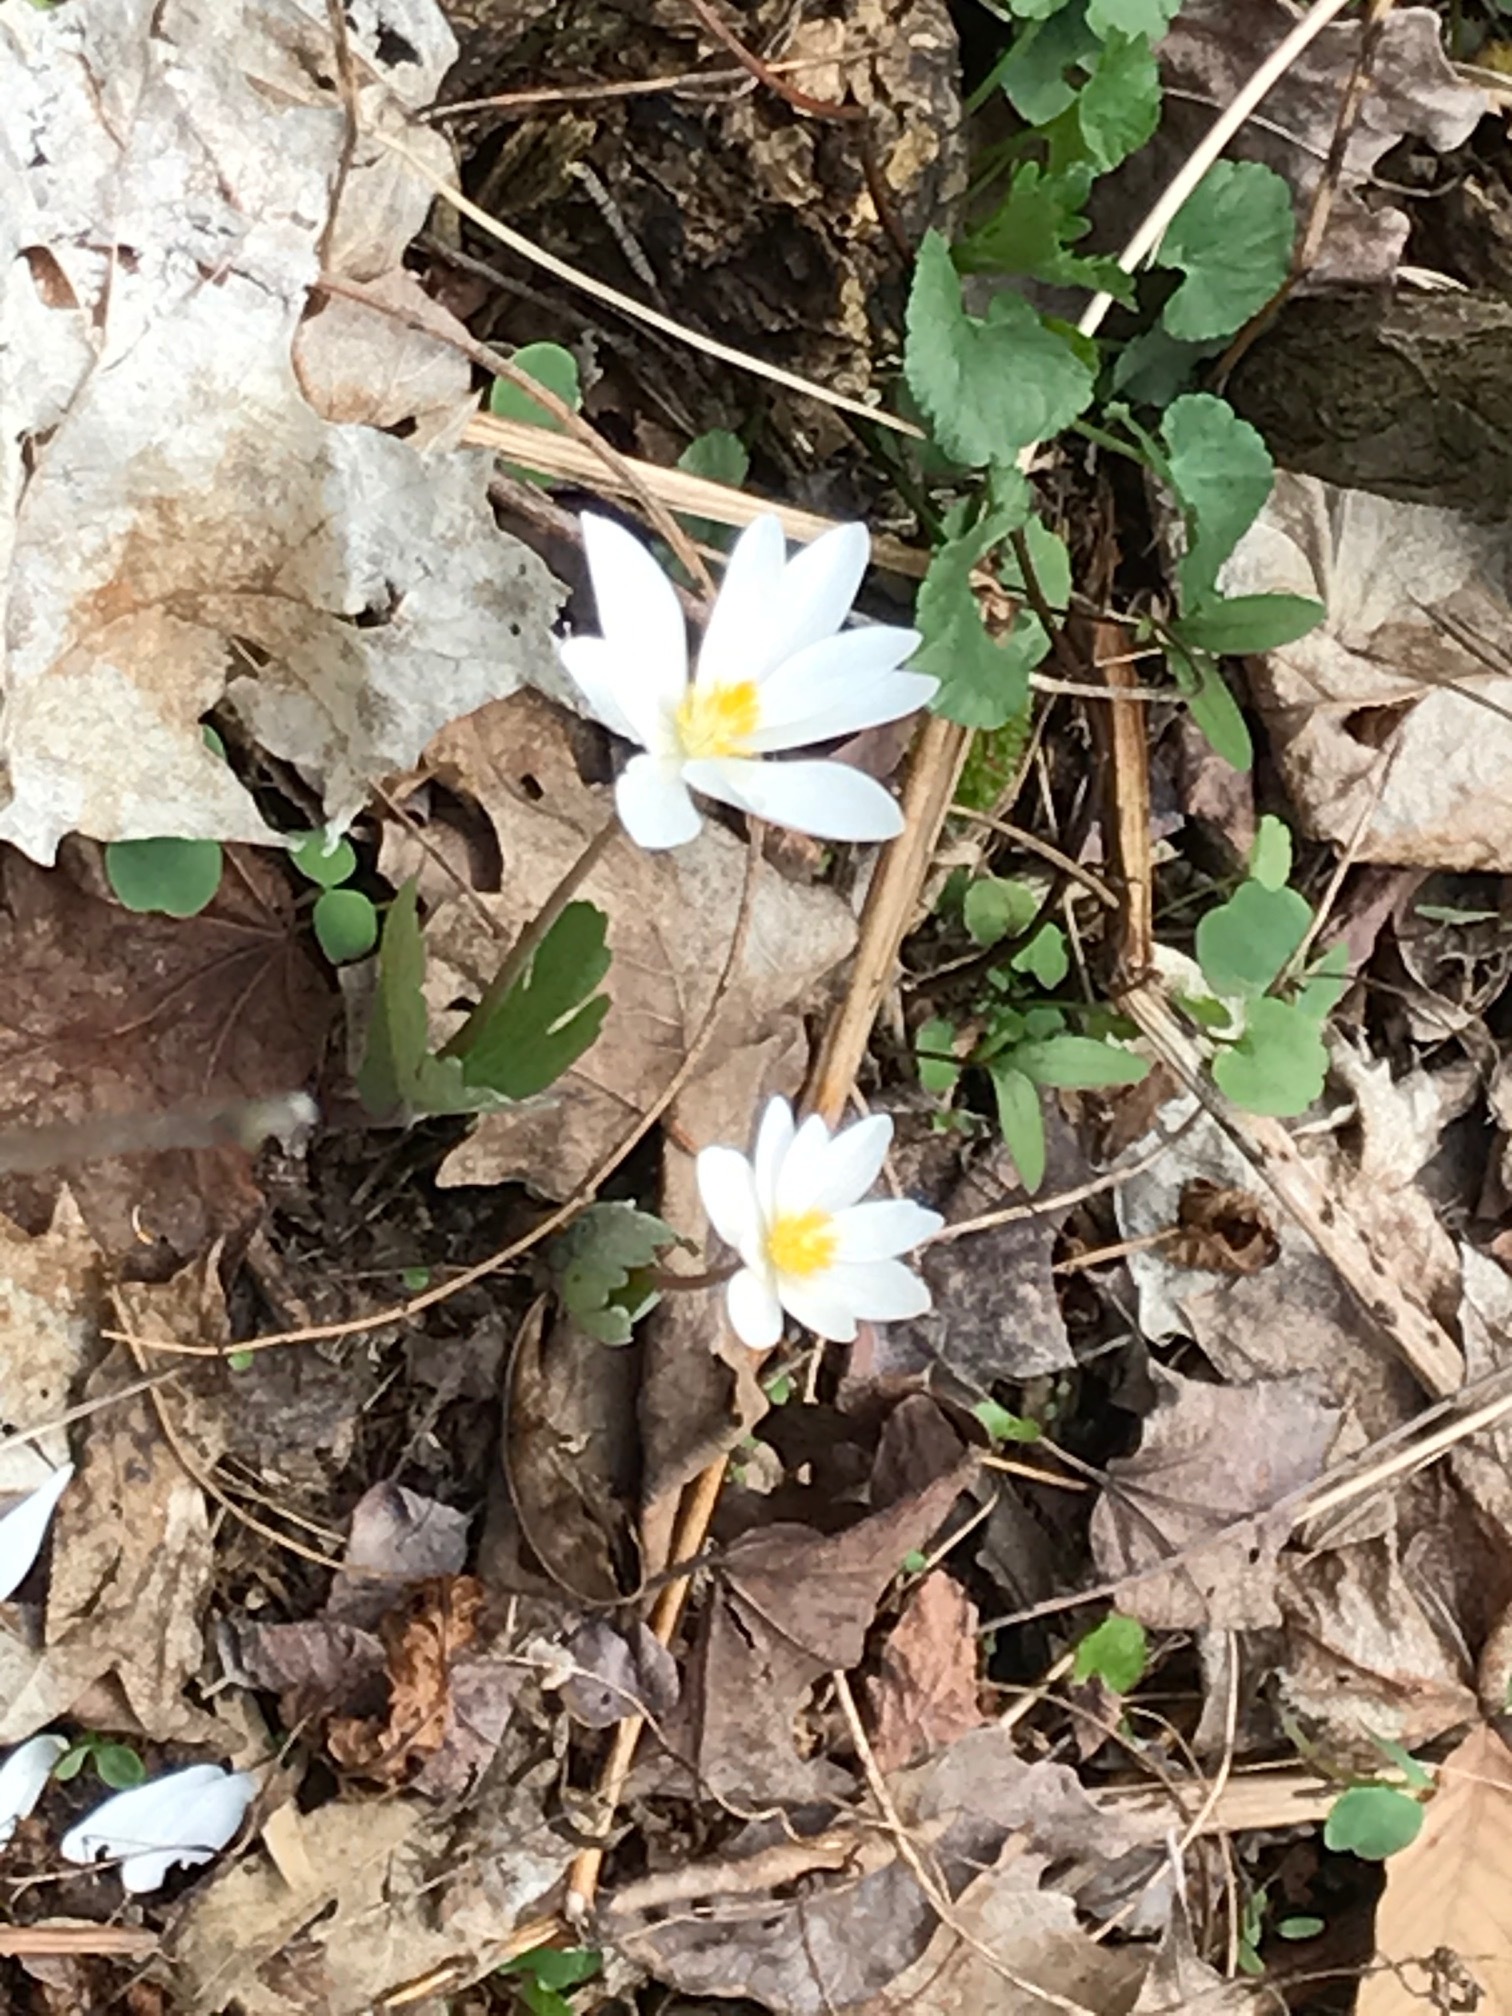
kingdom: Plantae
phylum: Tracheophyta
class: Magnoliopsida
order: Ranunculales
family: Papaveraceae
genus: Sanguinaria
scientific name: Sanguinaria canadensis
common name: Bloodroot
